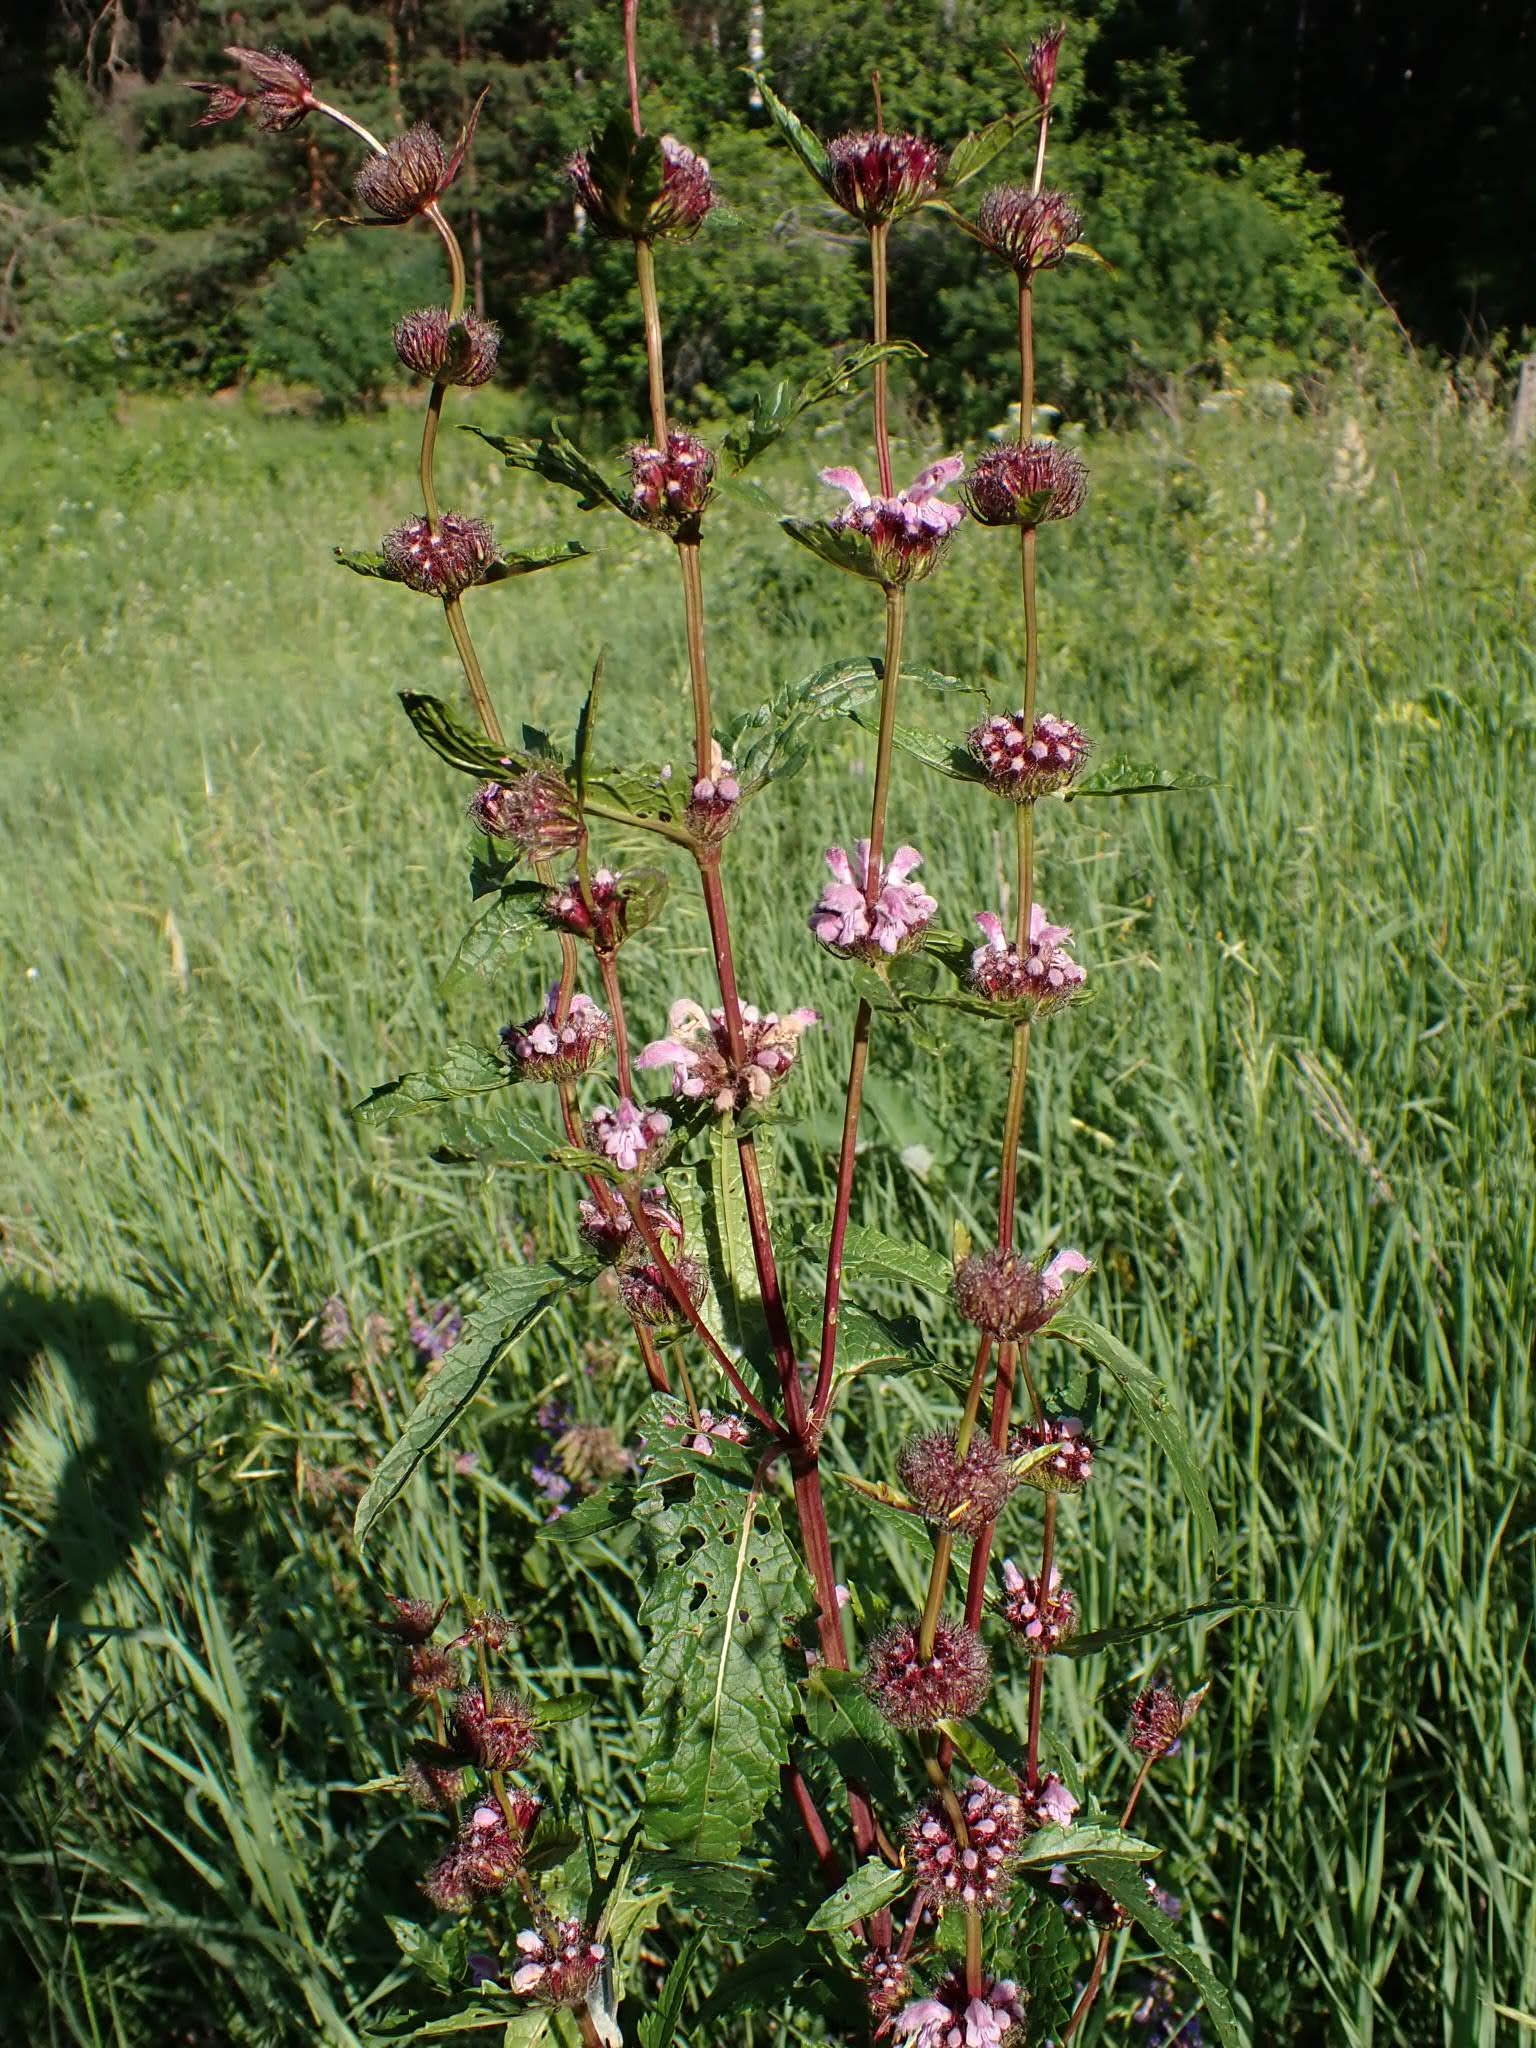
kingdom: Plantae
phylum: Tracheophyta
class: Magnoliopsida
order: Lamiales
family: Lamiaceae
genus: Phlomoides
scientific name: Phlomoides tuberosa
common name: Tuberous jerusalem sage
